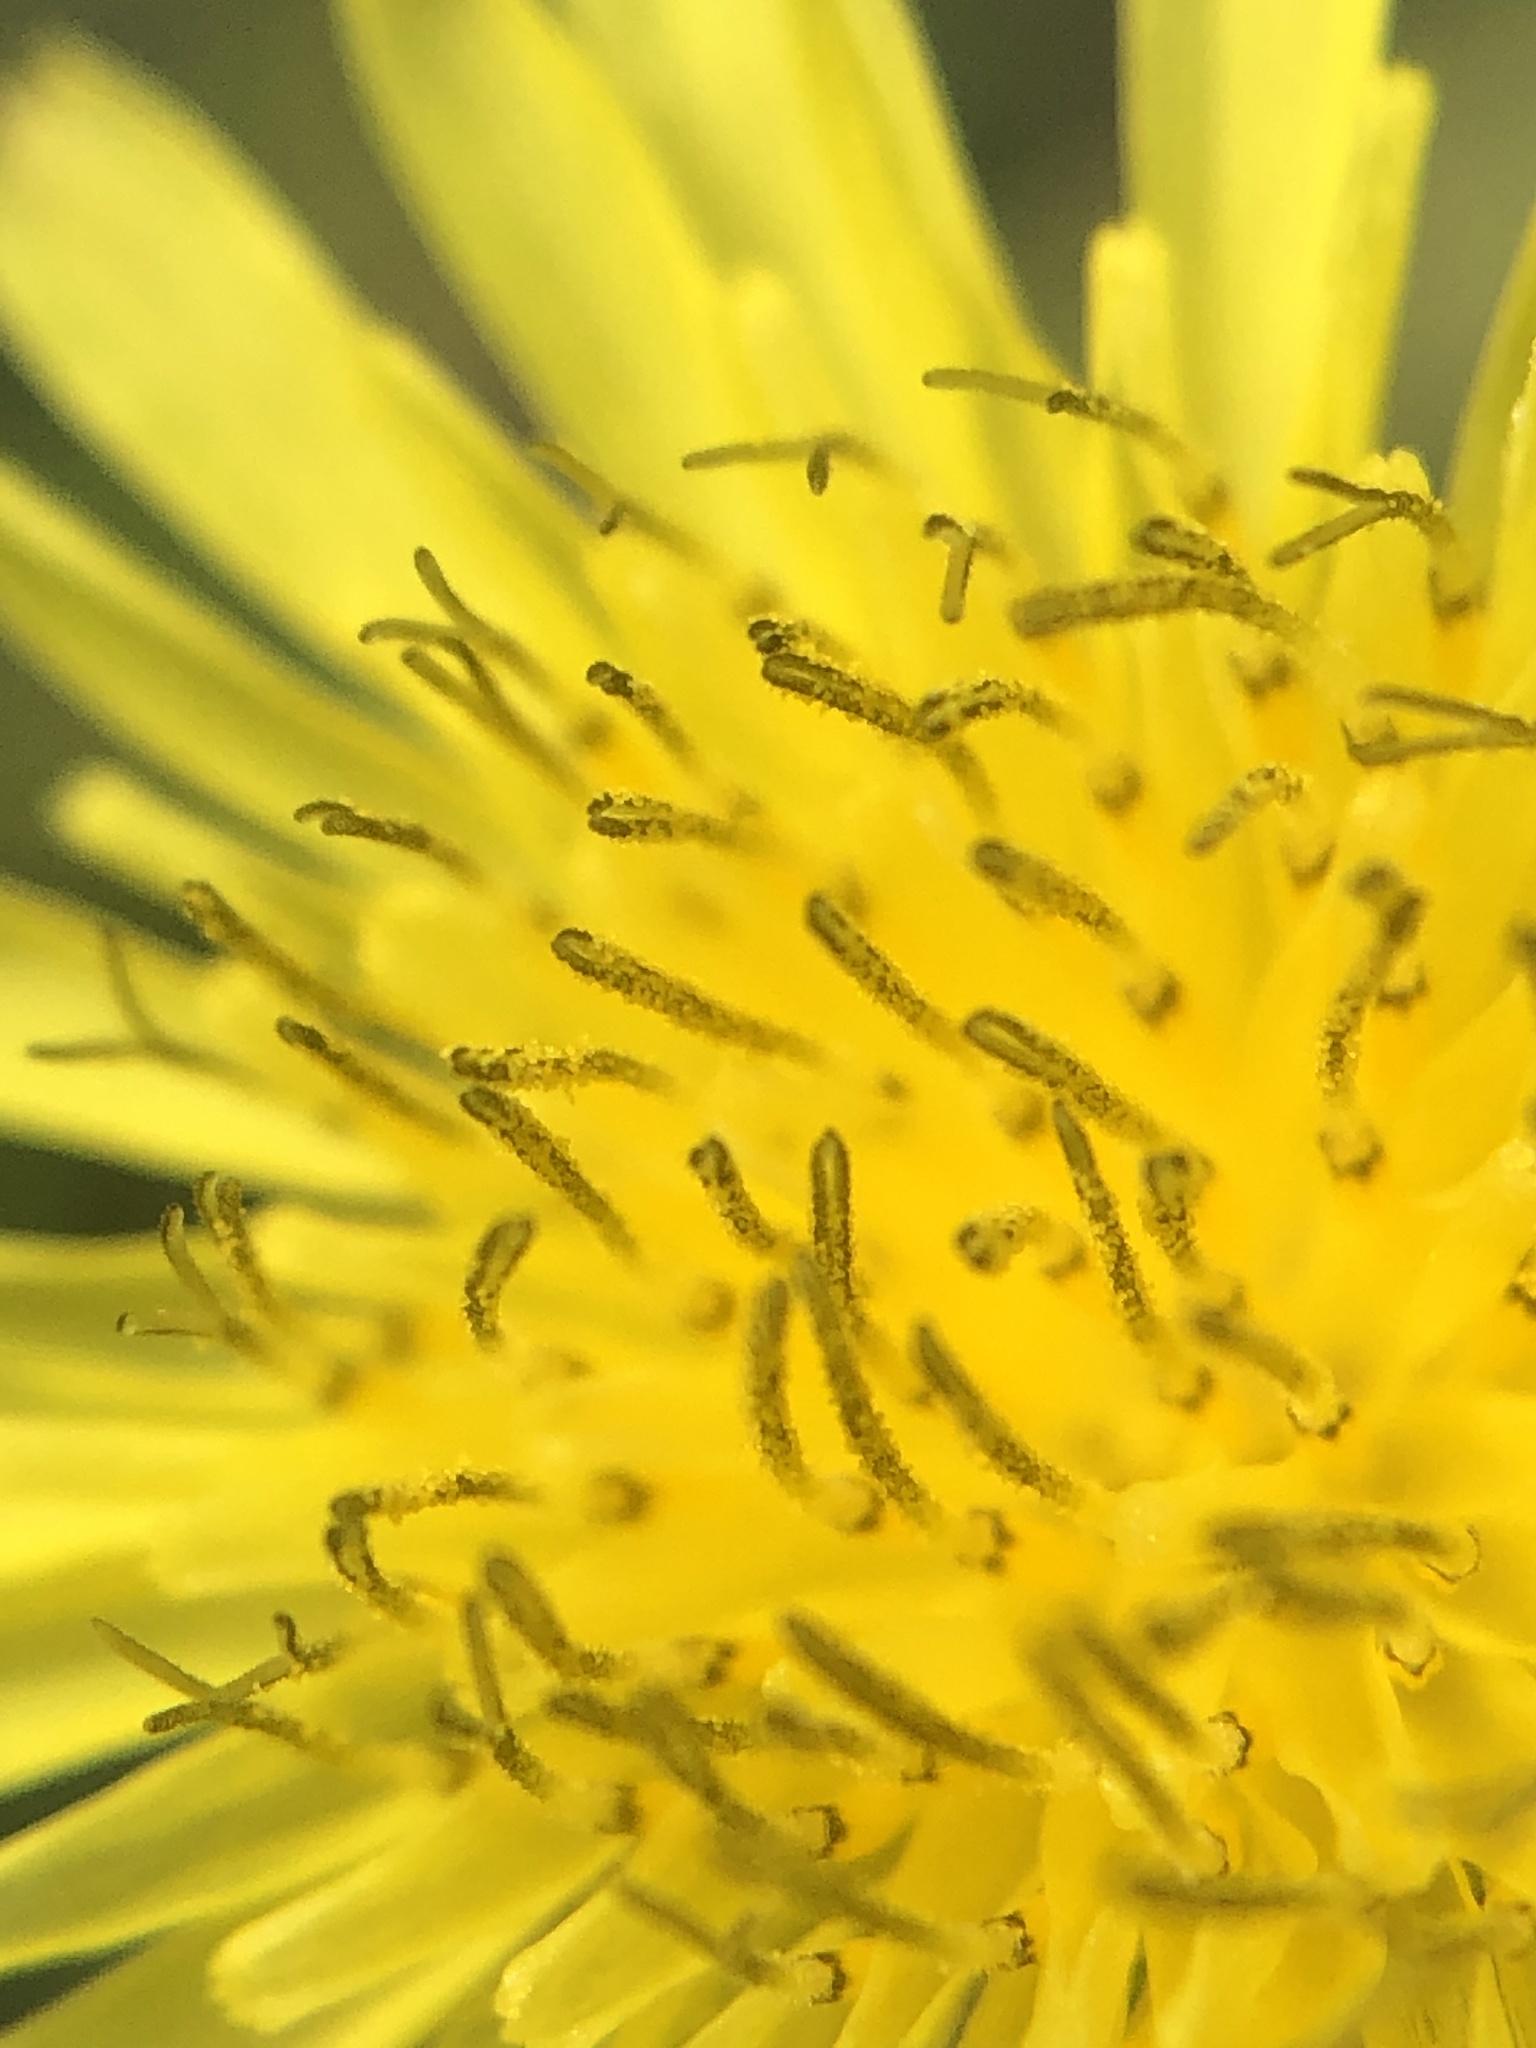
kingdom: Plantae
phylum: Tracheophyta
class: Magnoliopsida
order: Asterales
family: Asteraceae
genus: Taraxacum
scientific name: Taraxacum officinale
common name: Common dandelion
